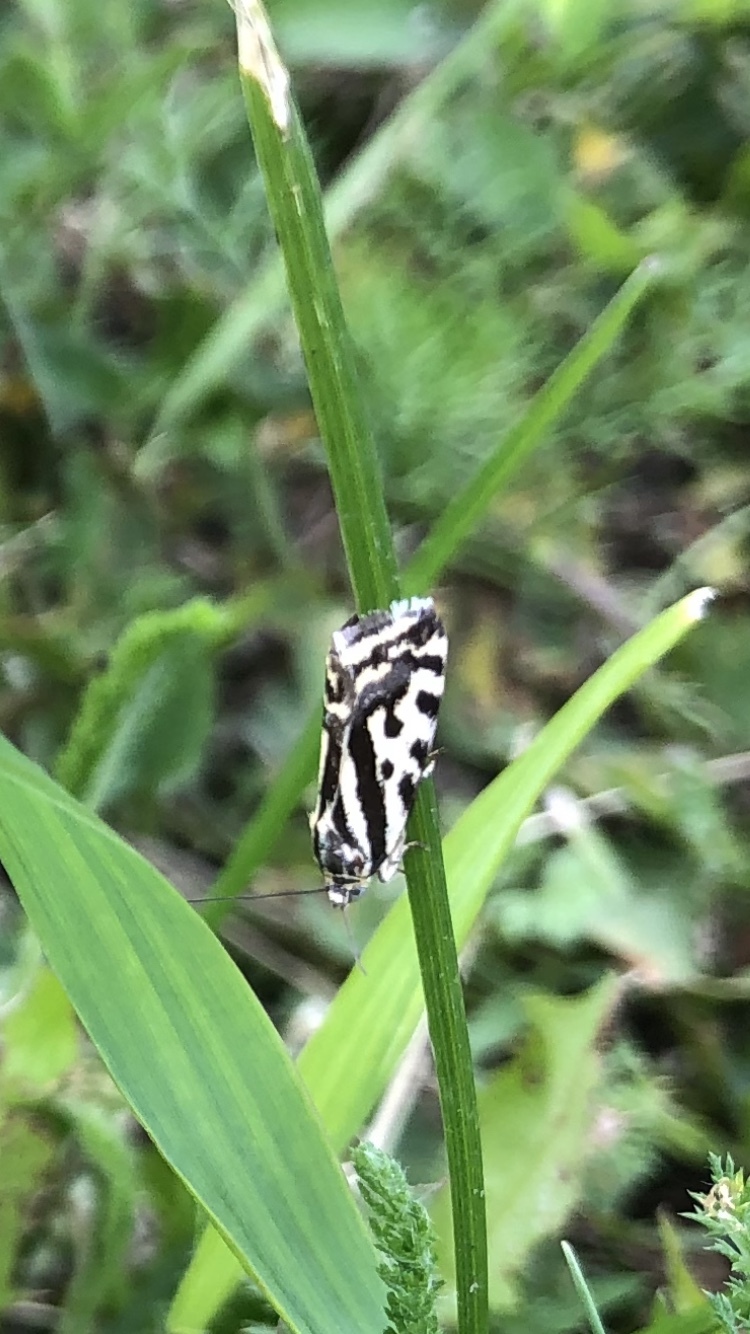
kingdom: Animalia
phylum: Arthropoda
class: Insecta
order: Lepidoptera
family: Noctuidae
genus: Acontia
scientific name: Acontia trabealis
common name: Spotted sulphur
